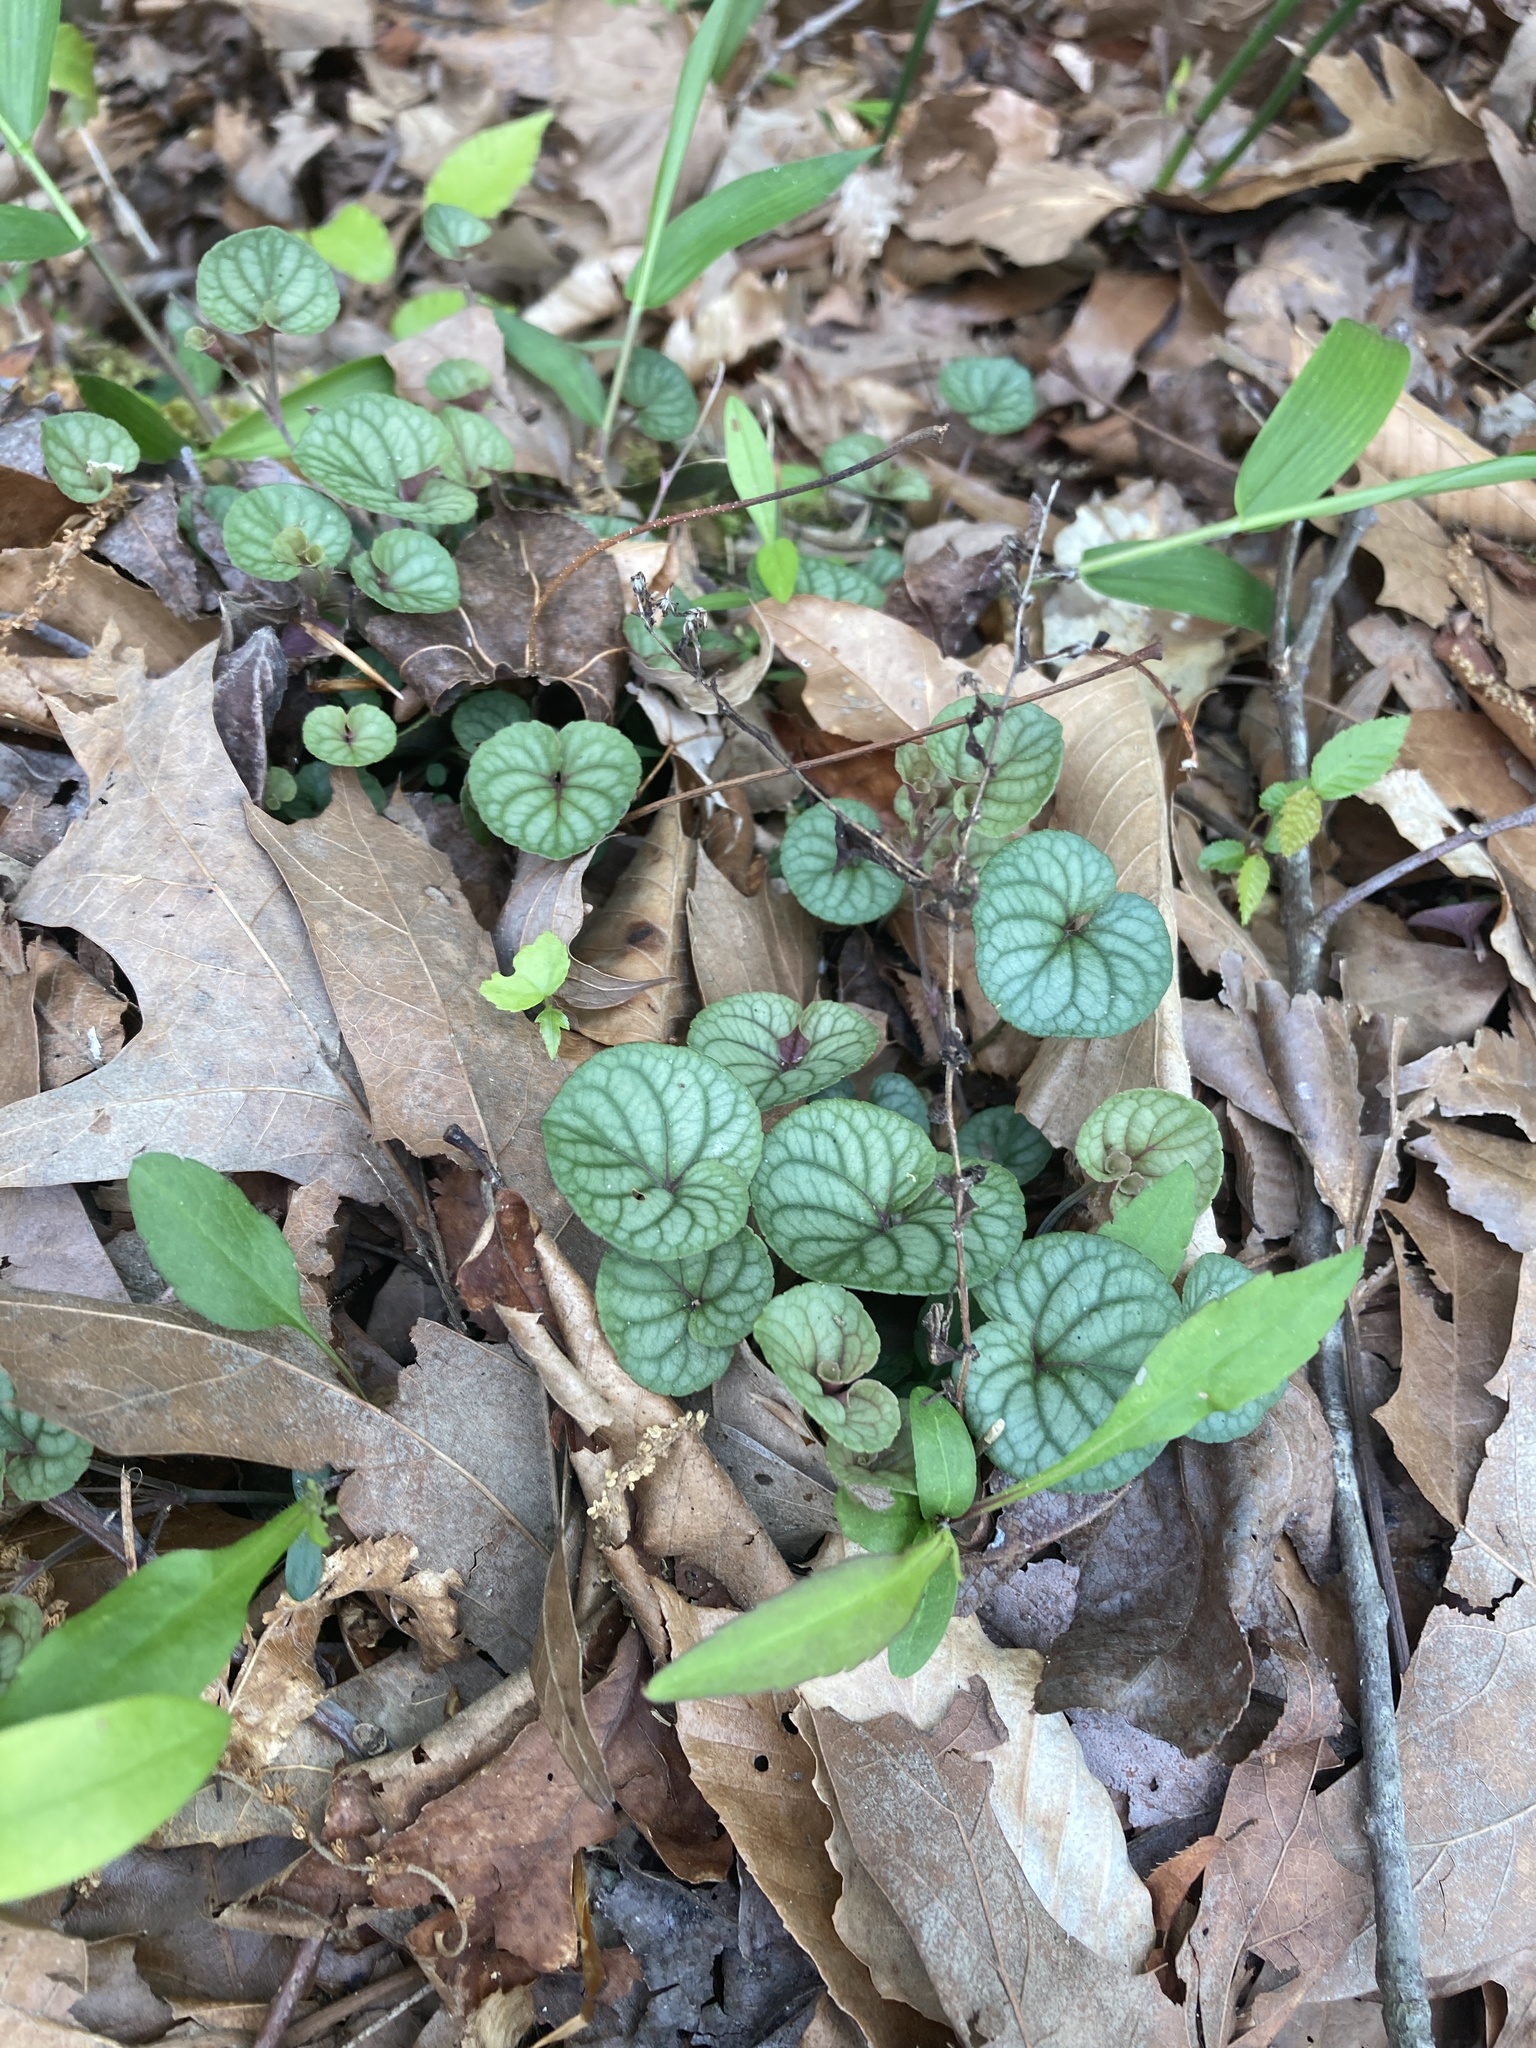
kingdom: Plantae
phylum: Tracheophyta
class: Magnoliopsida
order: Malpighiales
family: Violaceae
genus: Viola
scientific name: Viola walteri
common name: Prostrate southern violet
